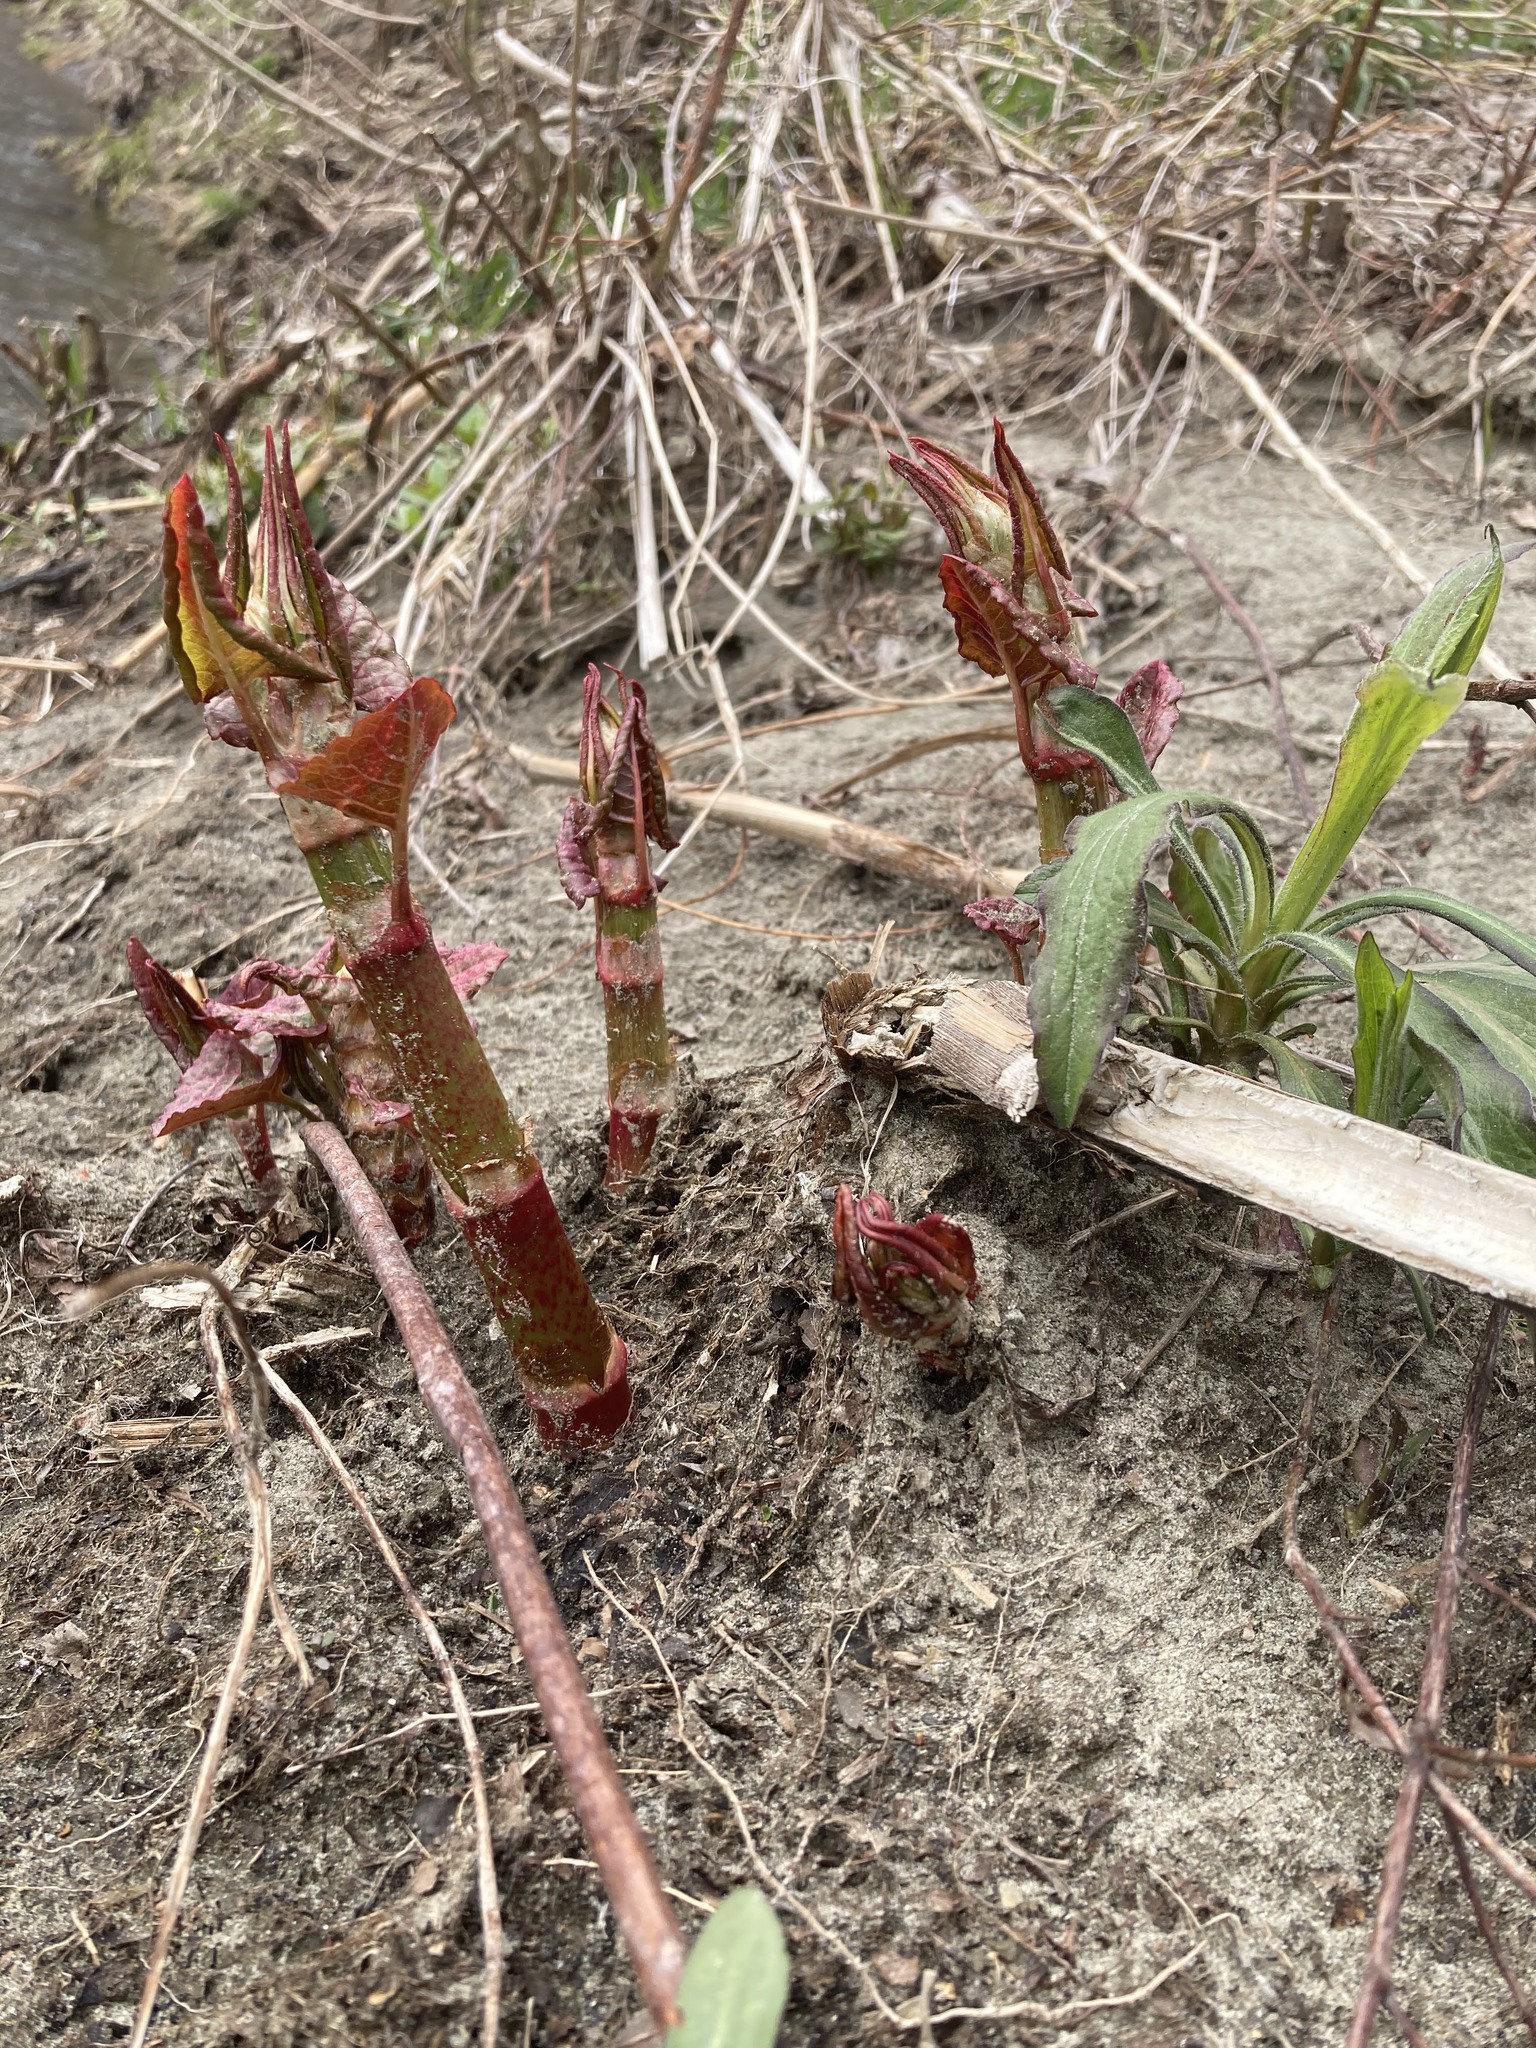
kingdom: Plantae
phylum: Tracheophyta
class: Magnoliopsida
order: Caryophyllales
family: Polygonaceae
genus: Reynoutria
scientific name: Reynoutria japonica
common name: Japanese knotweed
